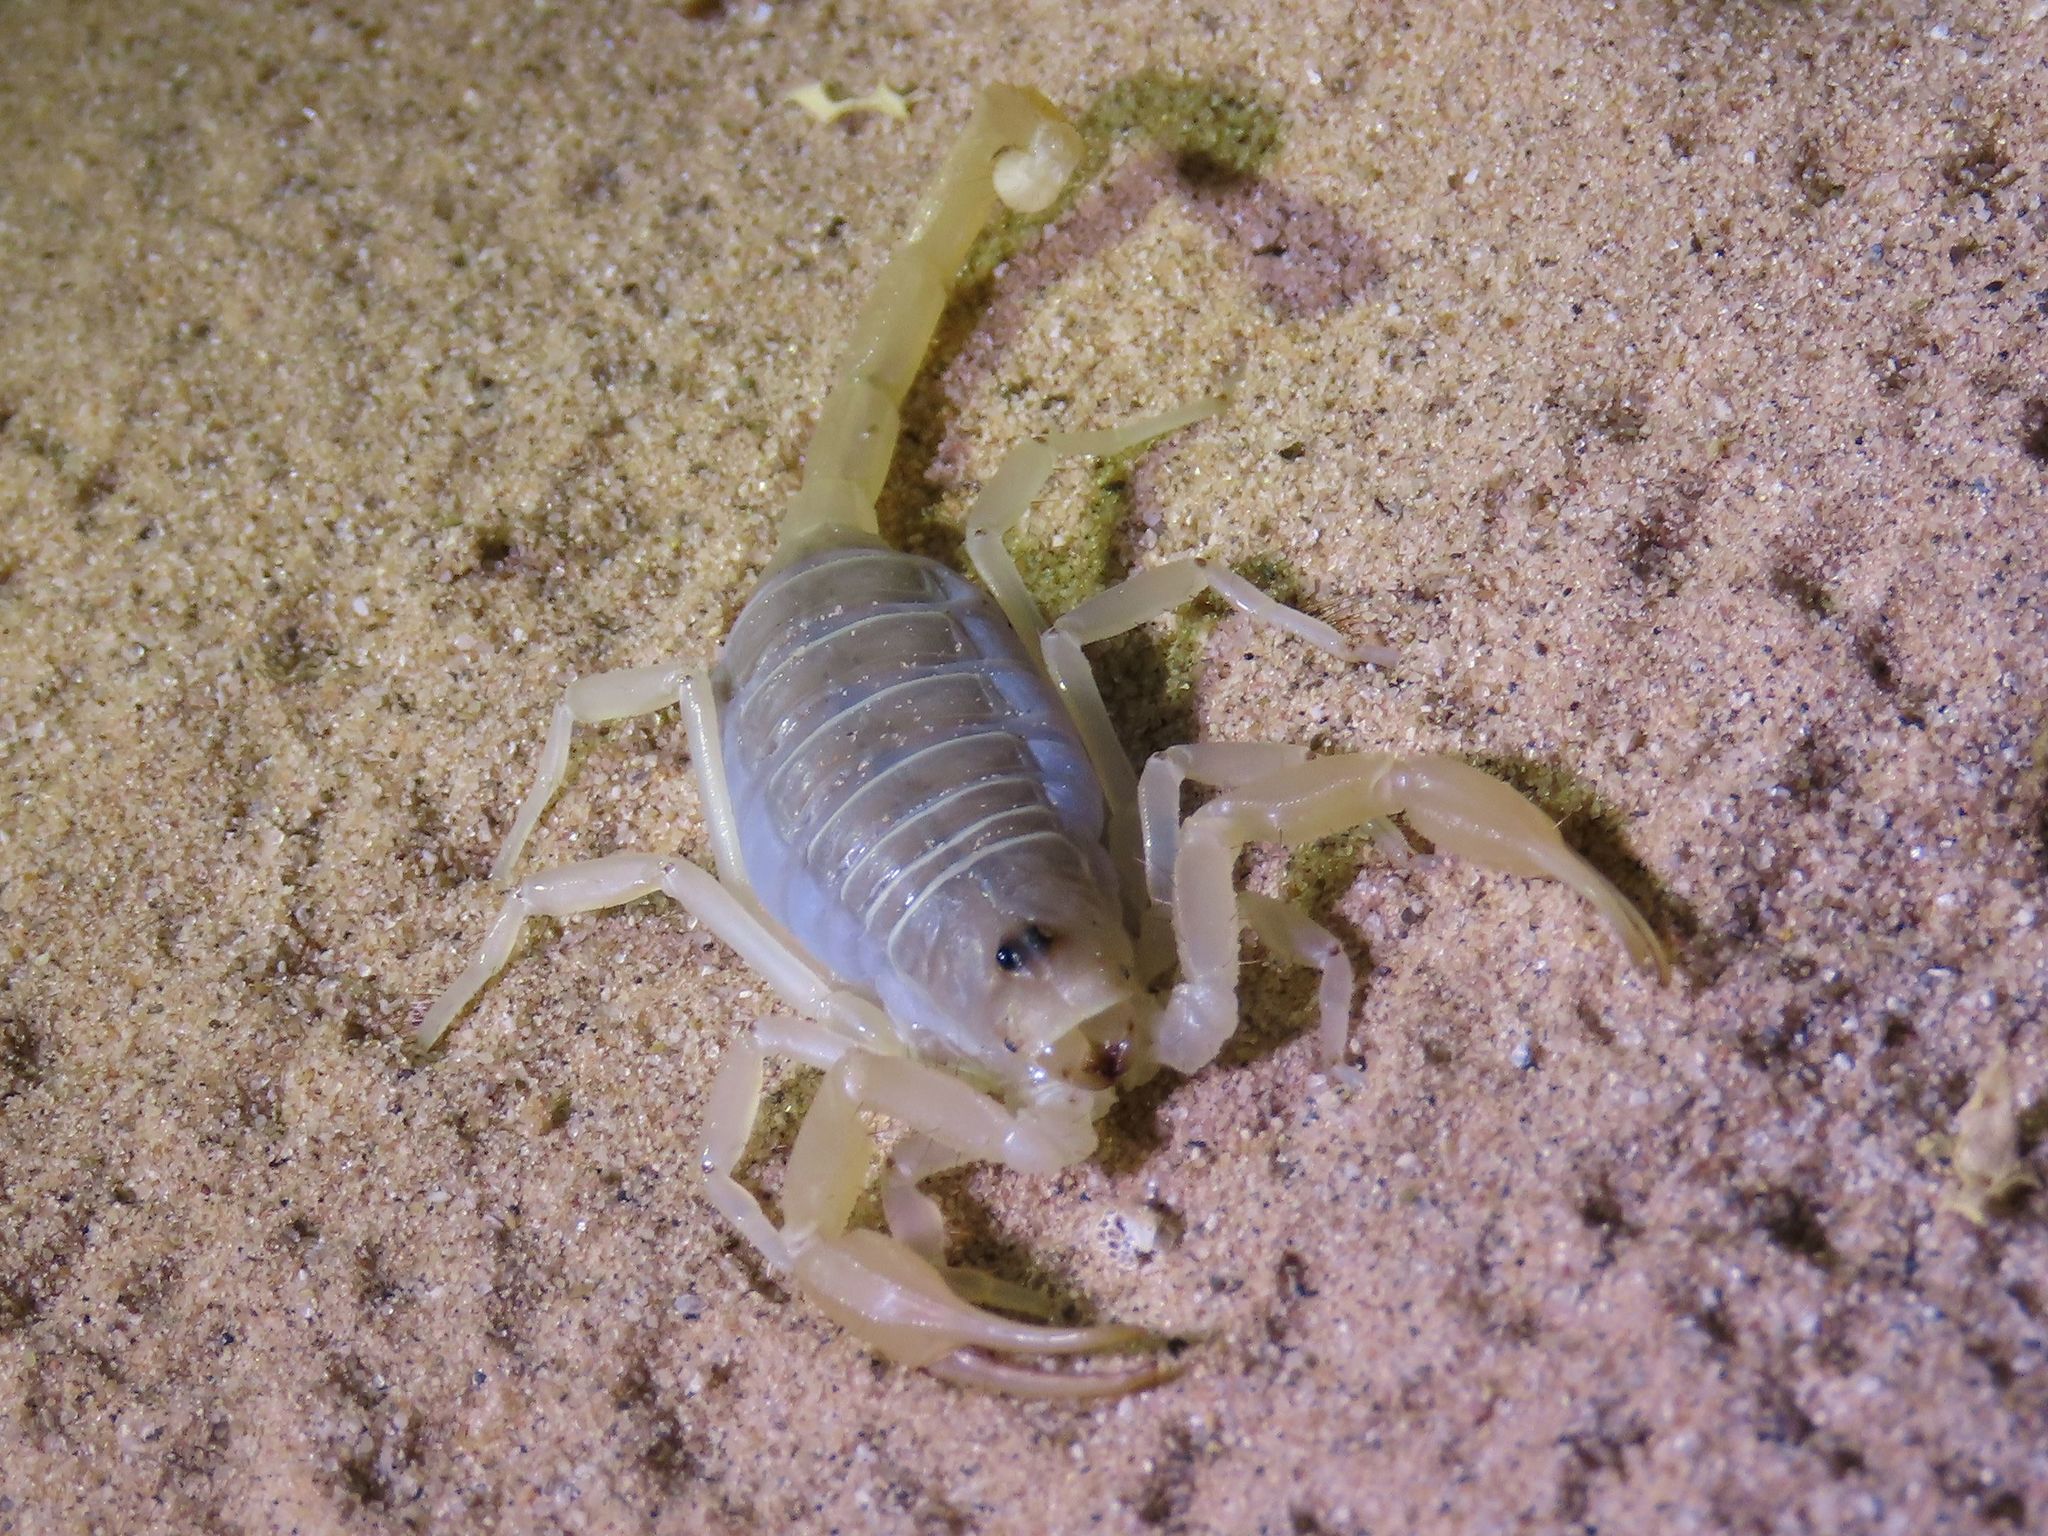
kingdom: Animalia
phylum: Arthropoda
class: Arachnida
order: Scorpiones
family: Vaejovidae
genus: Smeringurus
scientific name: Smeringurus mesaensis
